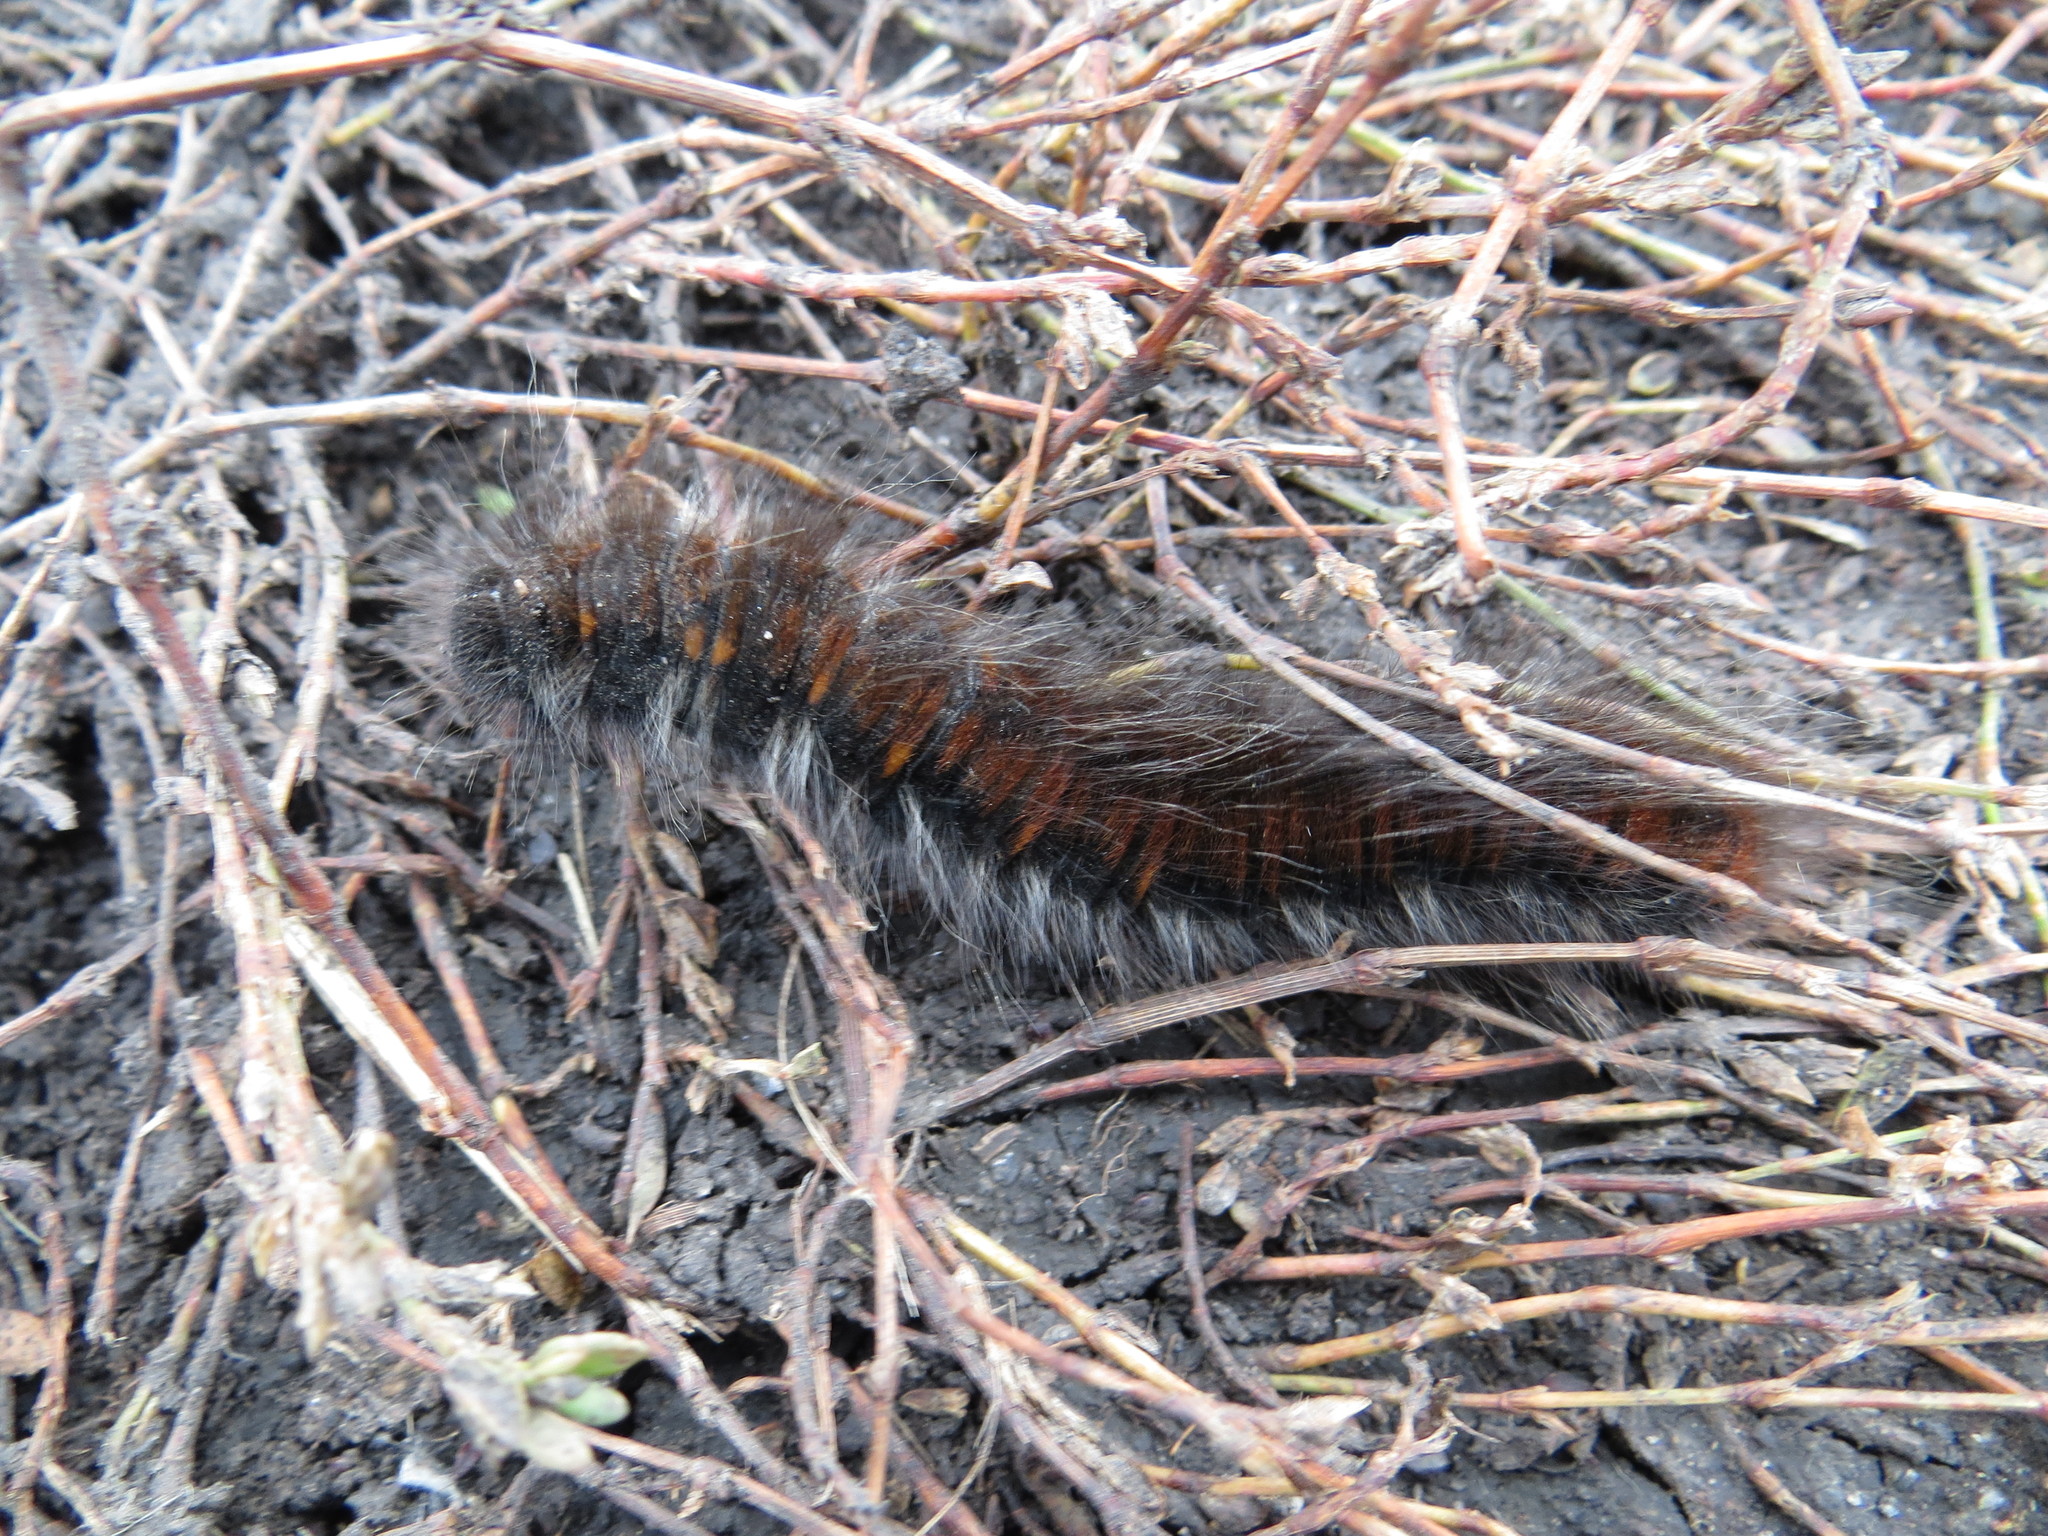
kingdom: Animalia
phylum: Arthropoda
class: Insecta
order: Lepidoptera
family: Lasiocampidae
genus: Macrothylacia
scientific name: Macrothylacia rubi
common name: Fox moth
